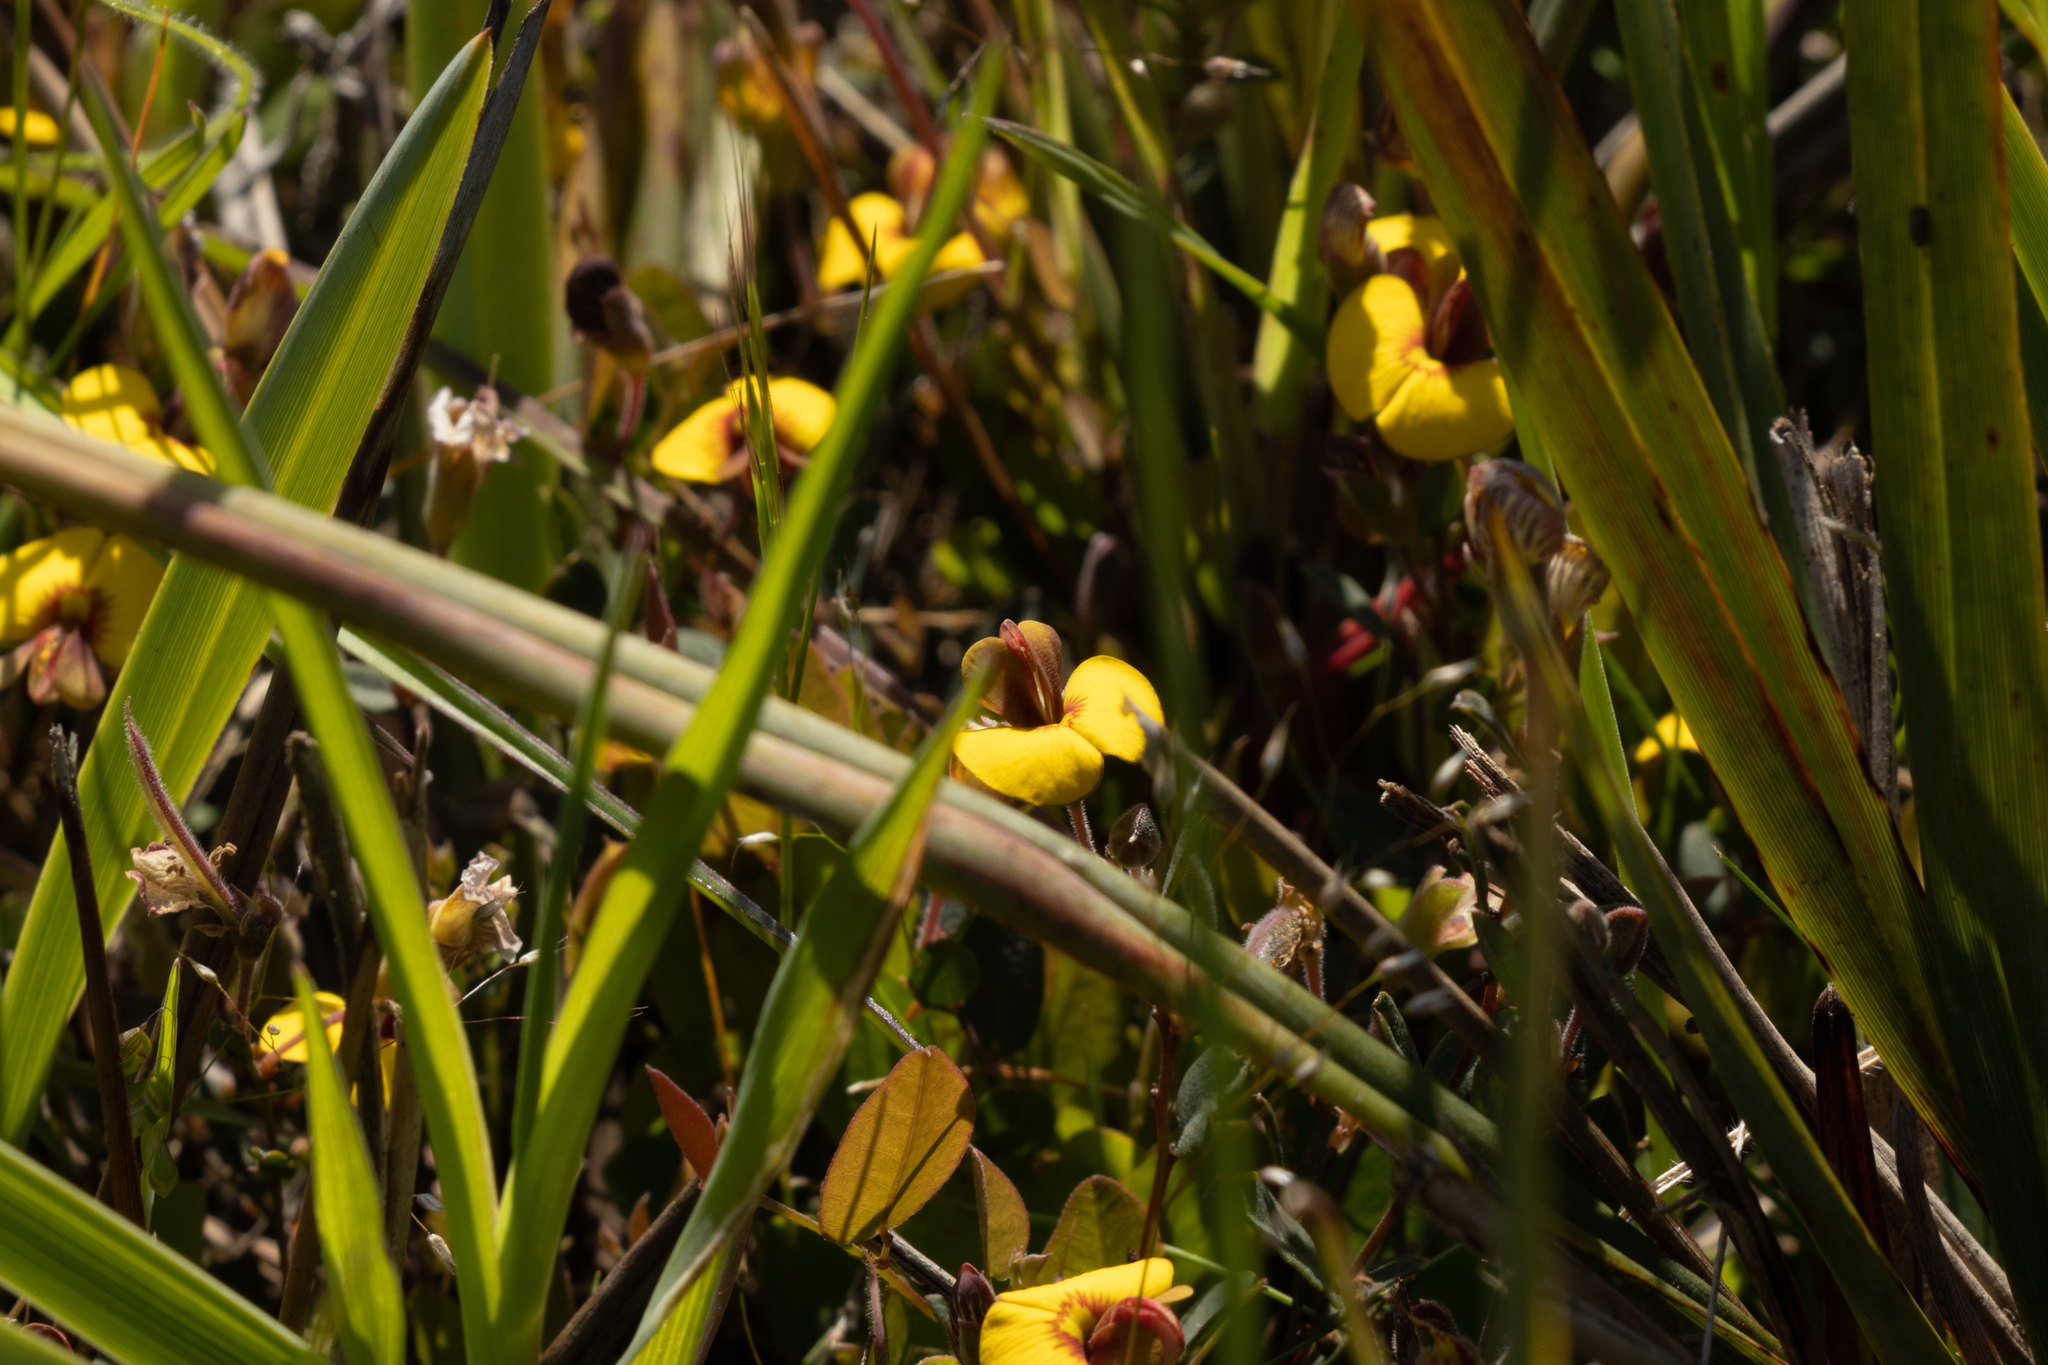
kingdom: Plantae
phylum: Tracheophyta
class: Magnoliopsida
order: Fabales
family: Fabaceae
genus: Bossiaea
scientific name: Bossiaea prostrata
